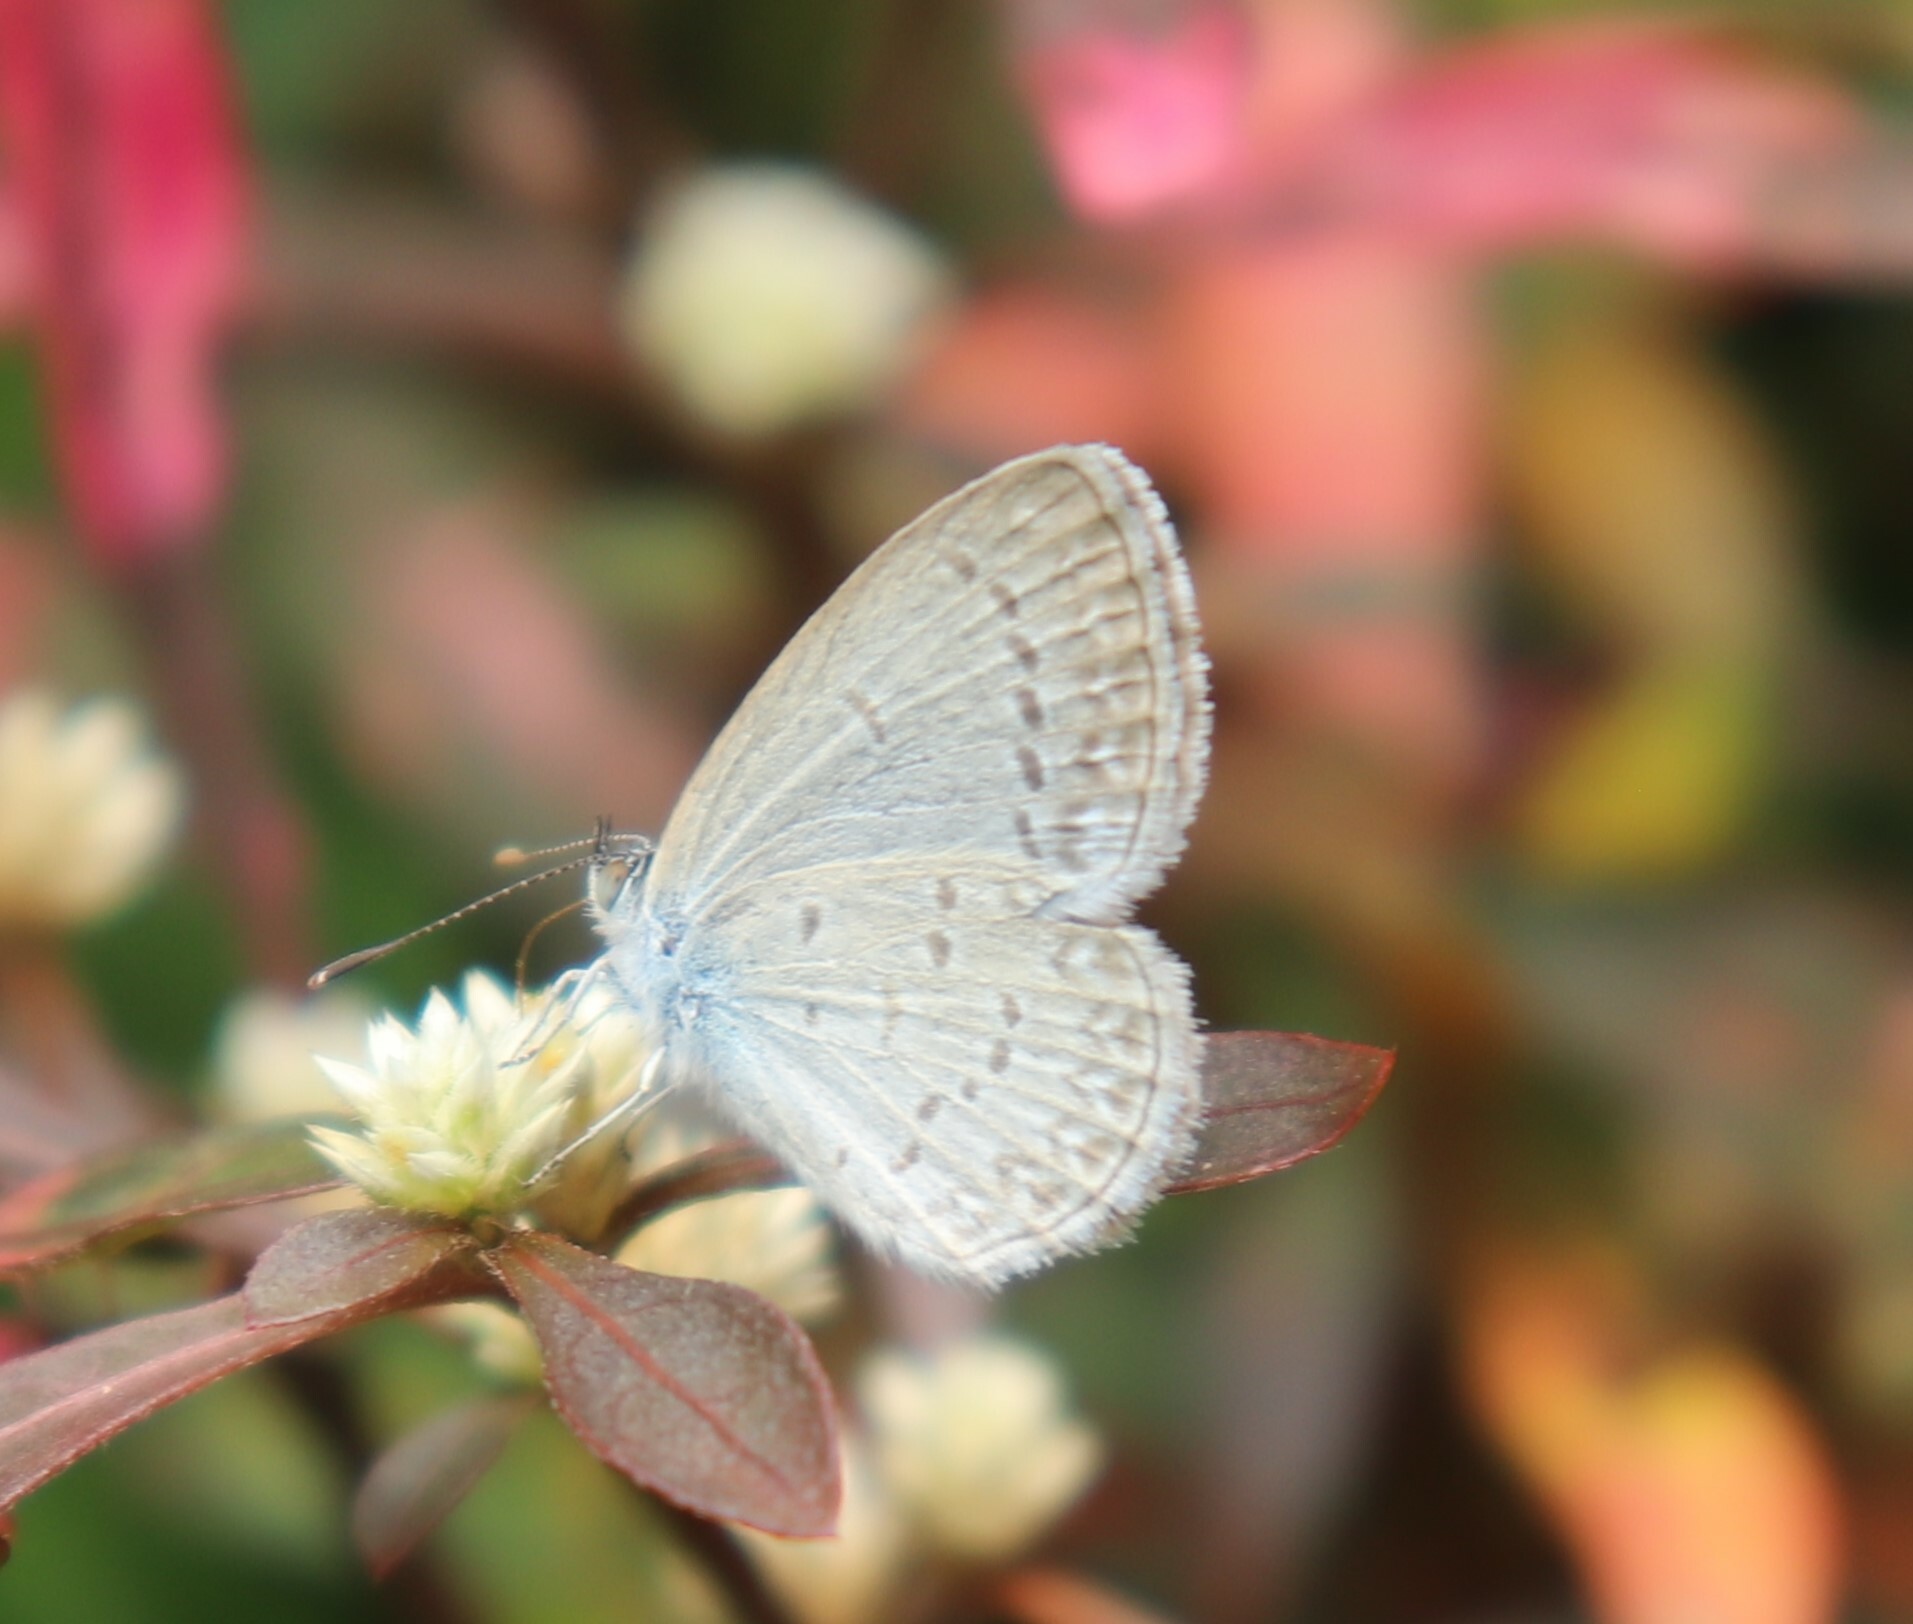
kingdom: Animalia
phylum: Arthropoda
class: Insecta
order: Lepidoptera
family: Lycaenidae
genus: Zizina
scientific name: Zizina otis
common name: Lesser grass blue
